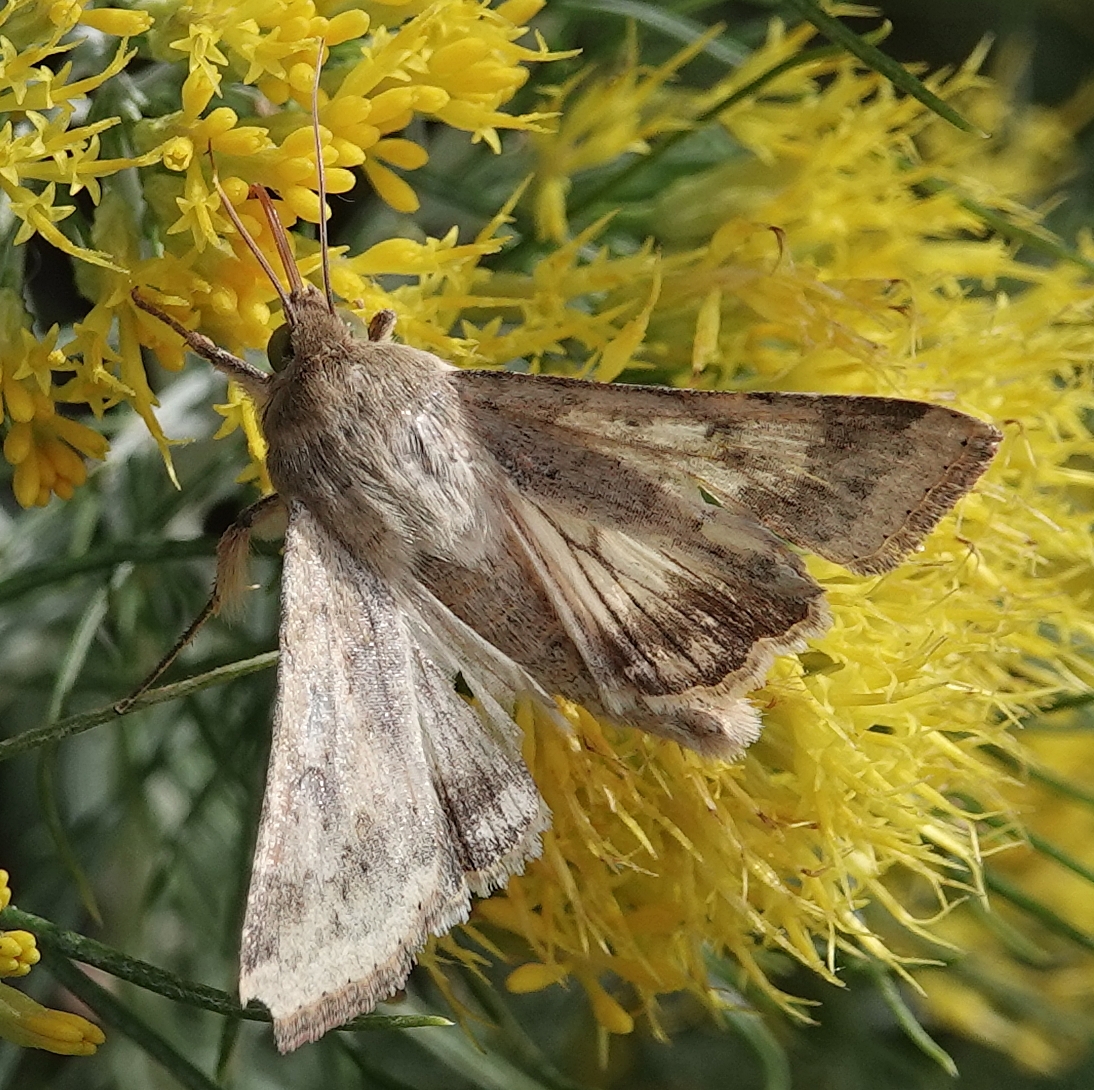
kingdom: Animalia
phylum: Arthropoda
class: Insecta
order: Lepidoptera
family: Noctuidae
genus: Helicoverpa
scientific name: Helicoverpa zea
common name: Bollworm
